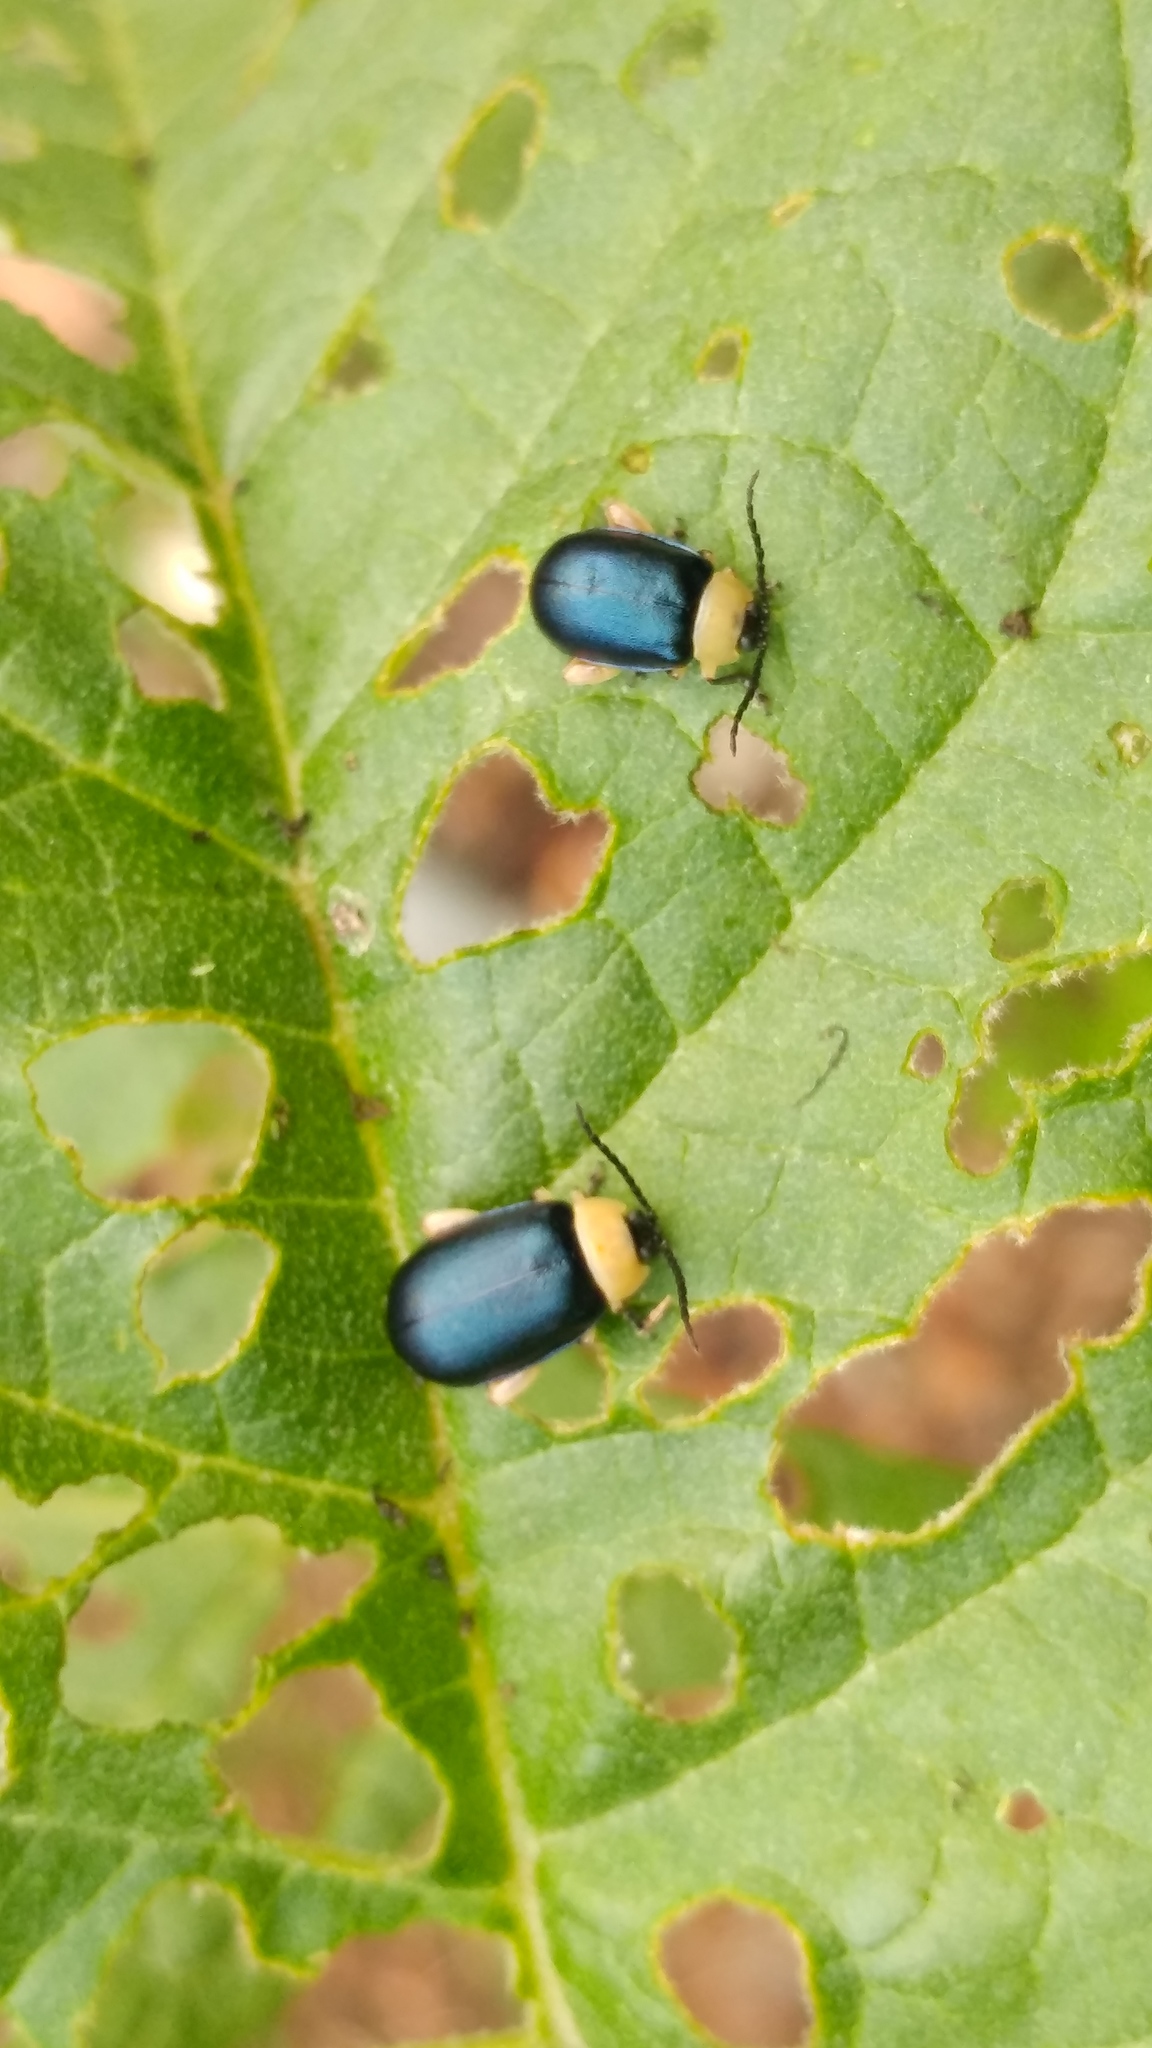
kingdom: Animalia
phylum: Arthropoda
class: Insecta
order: Coleoptera
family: Chrysomelidae
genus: Asphaera
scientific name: Asphaera abdominalis
